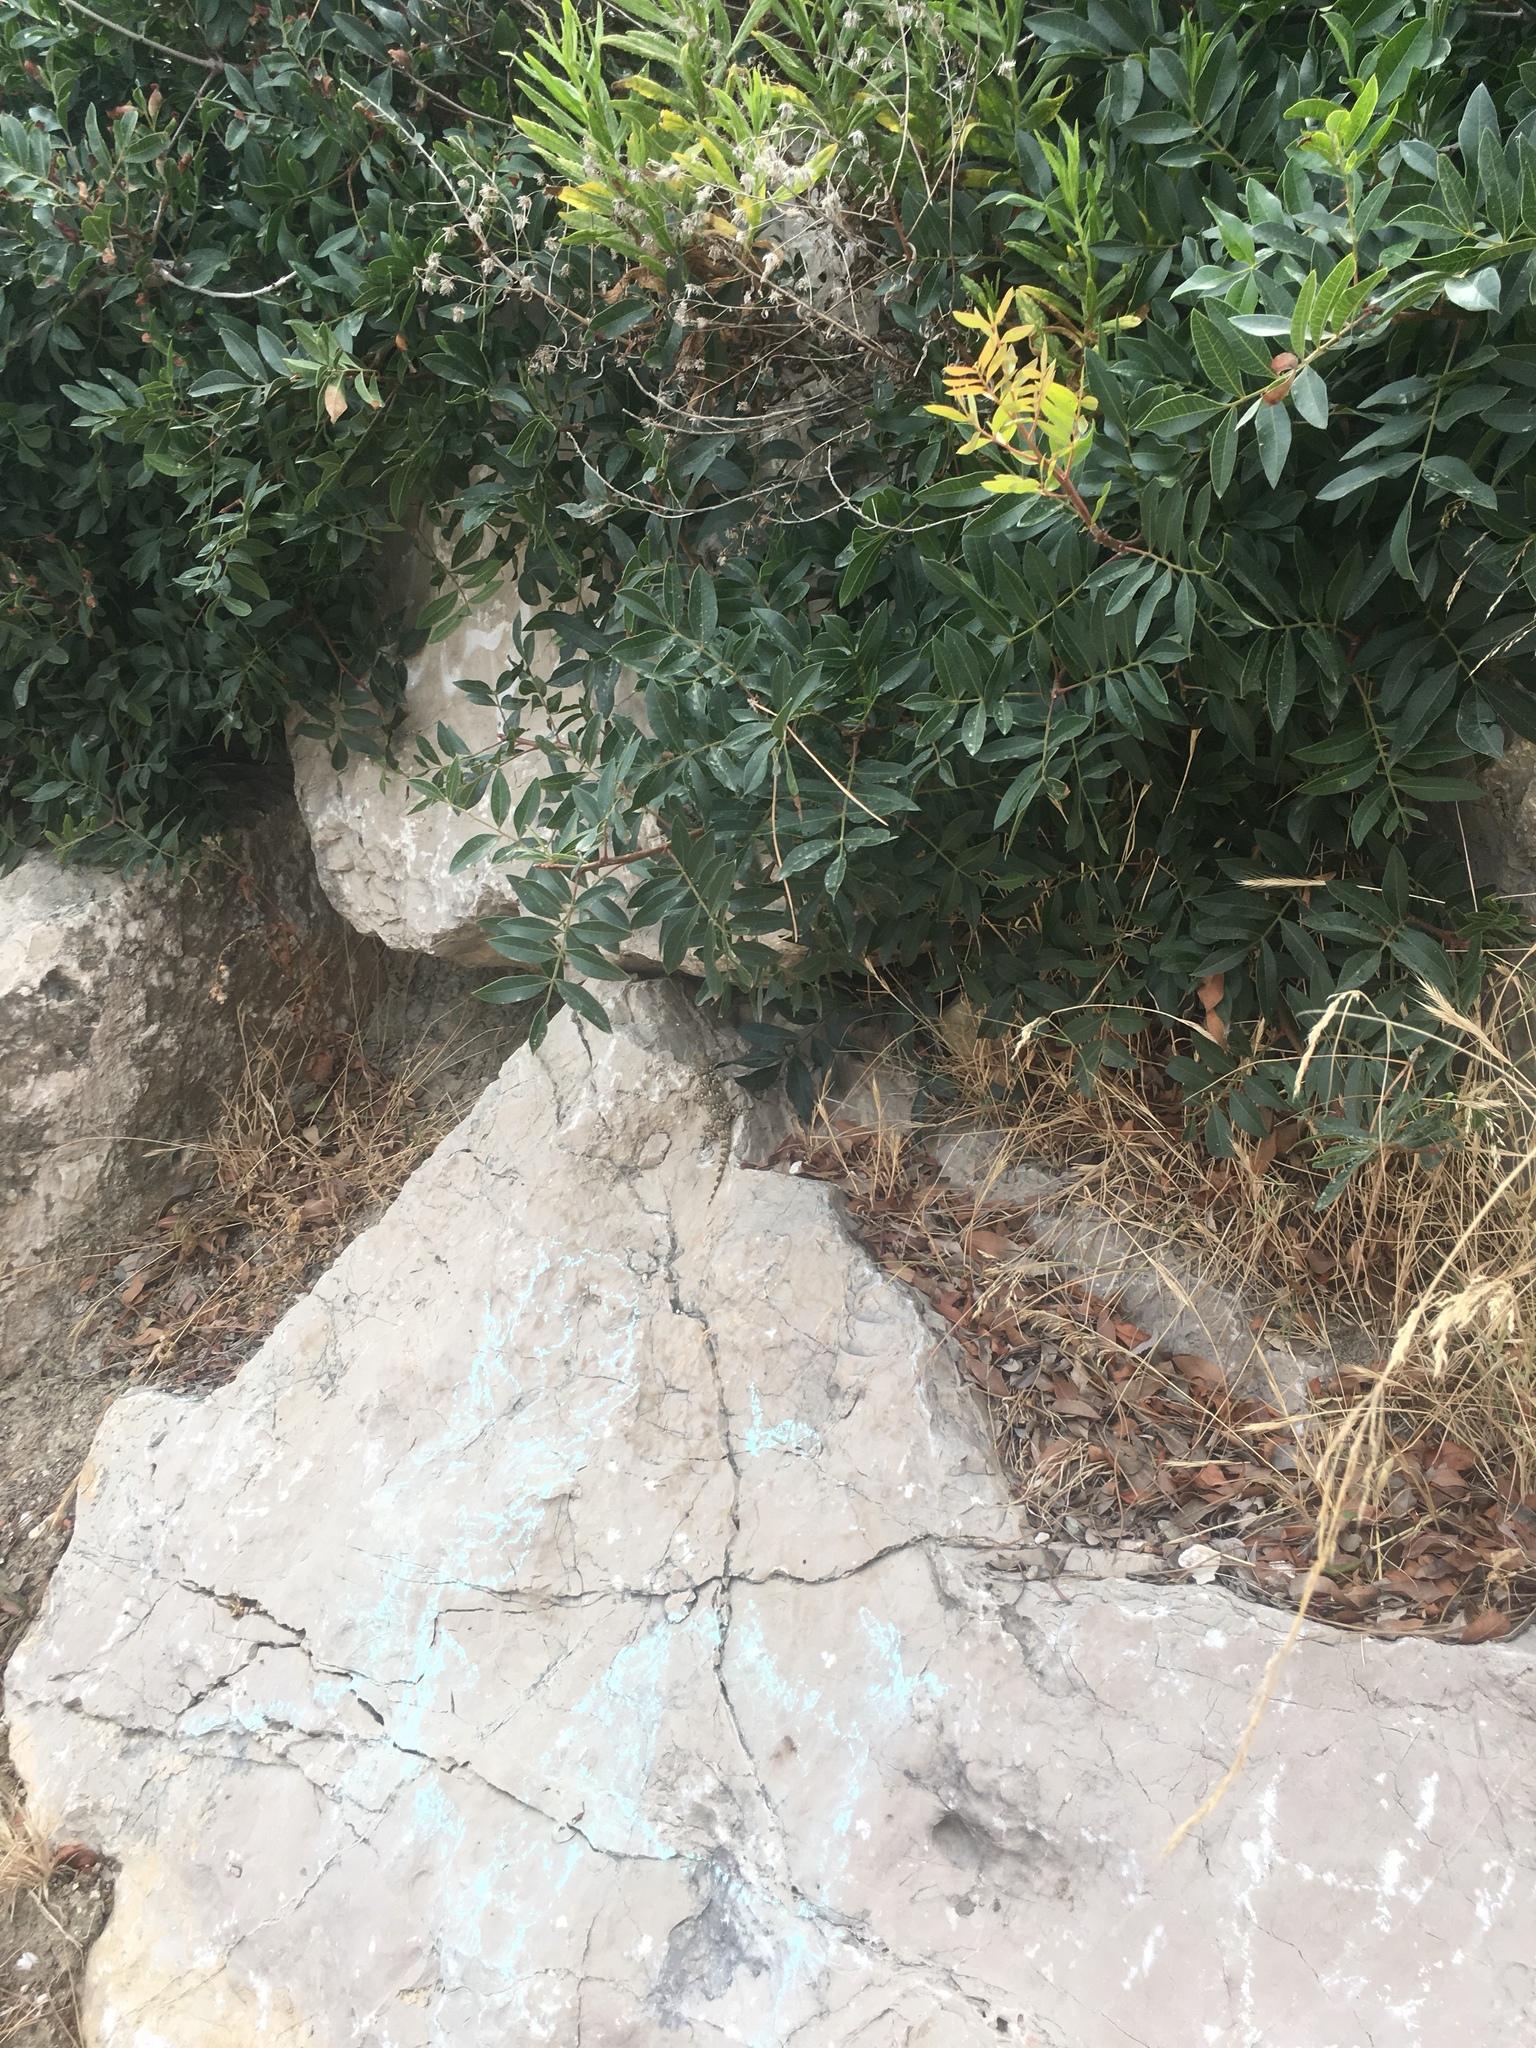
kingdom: Animalia
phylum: Chordata
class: Squamata
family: Phyllodactylidae
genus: Tarentola
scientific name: Tarentola mauritanica
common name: Moorish gecko
